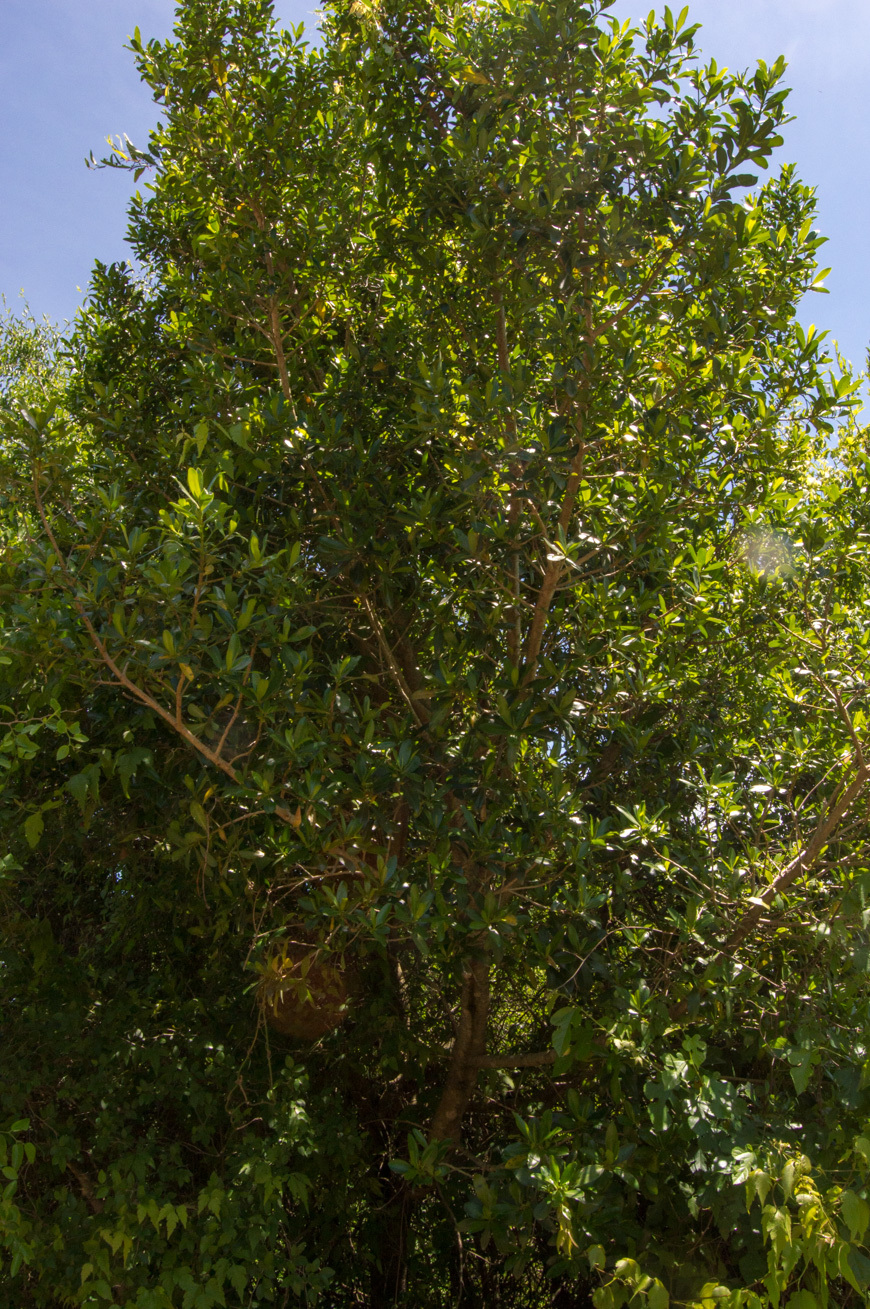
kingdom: Plantae
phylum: Tracheophyta
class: Magnoliopsida
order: Ericales
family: Primulaceae
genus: Myrsine
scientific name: Myrsine laetevirens
